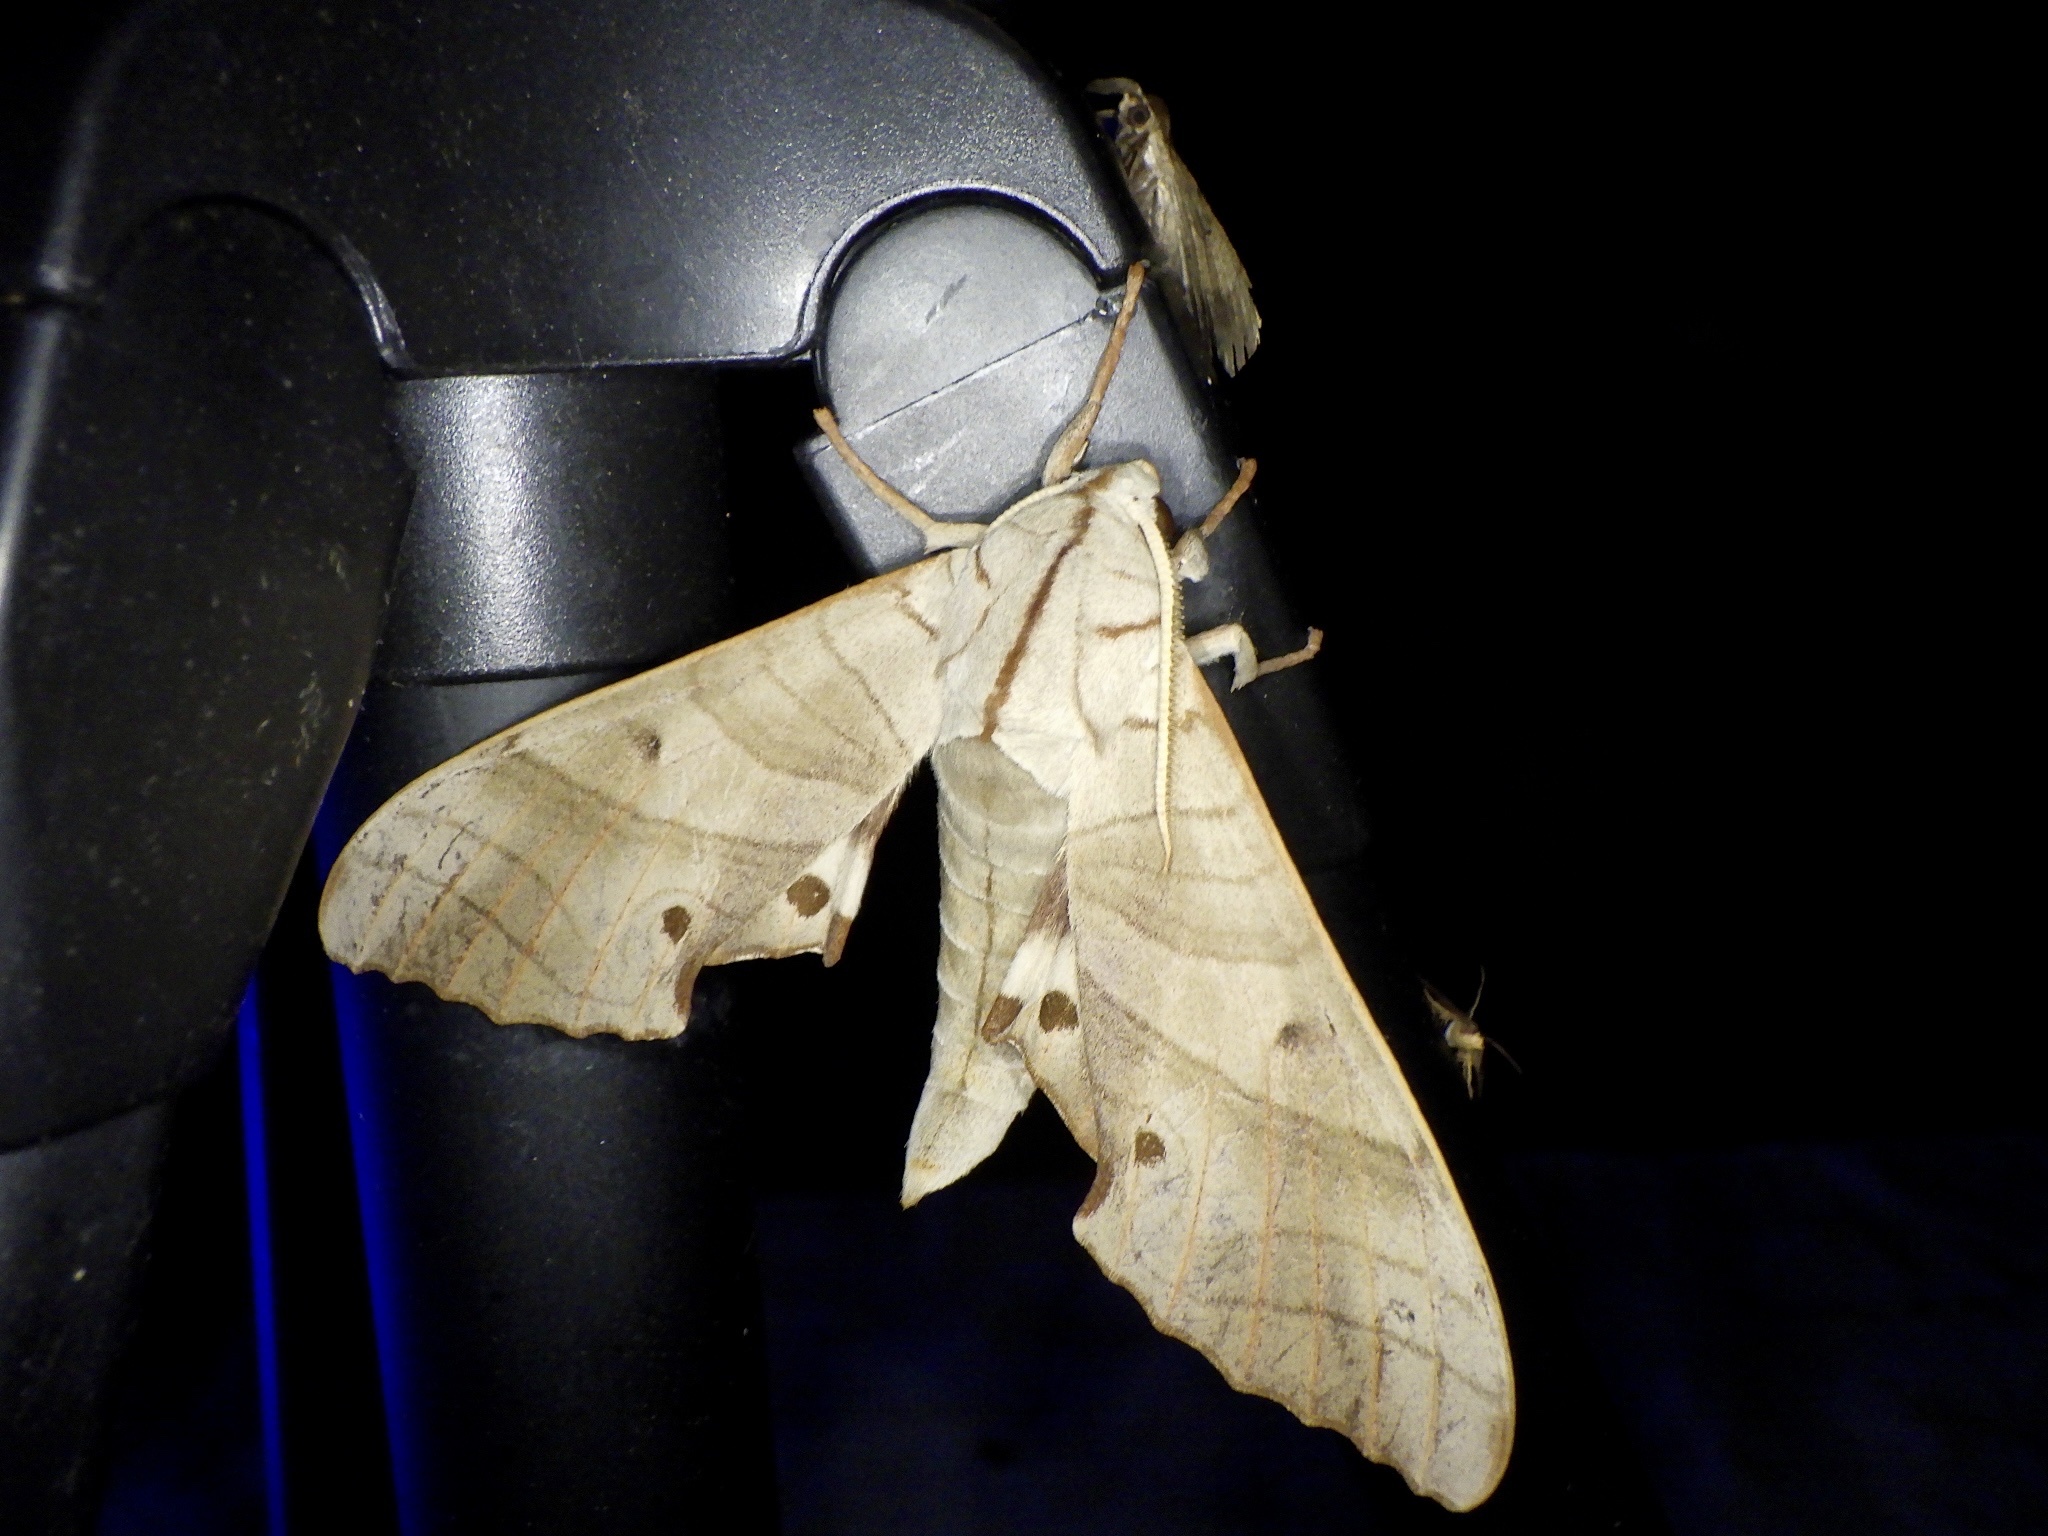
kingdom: Animalia
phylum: Arthropoda
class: Insecta
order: Lepidoptera
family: Sphingidae
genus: Marumba
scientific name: Marumba sperchius
